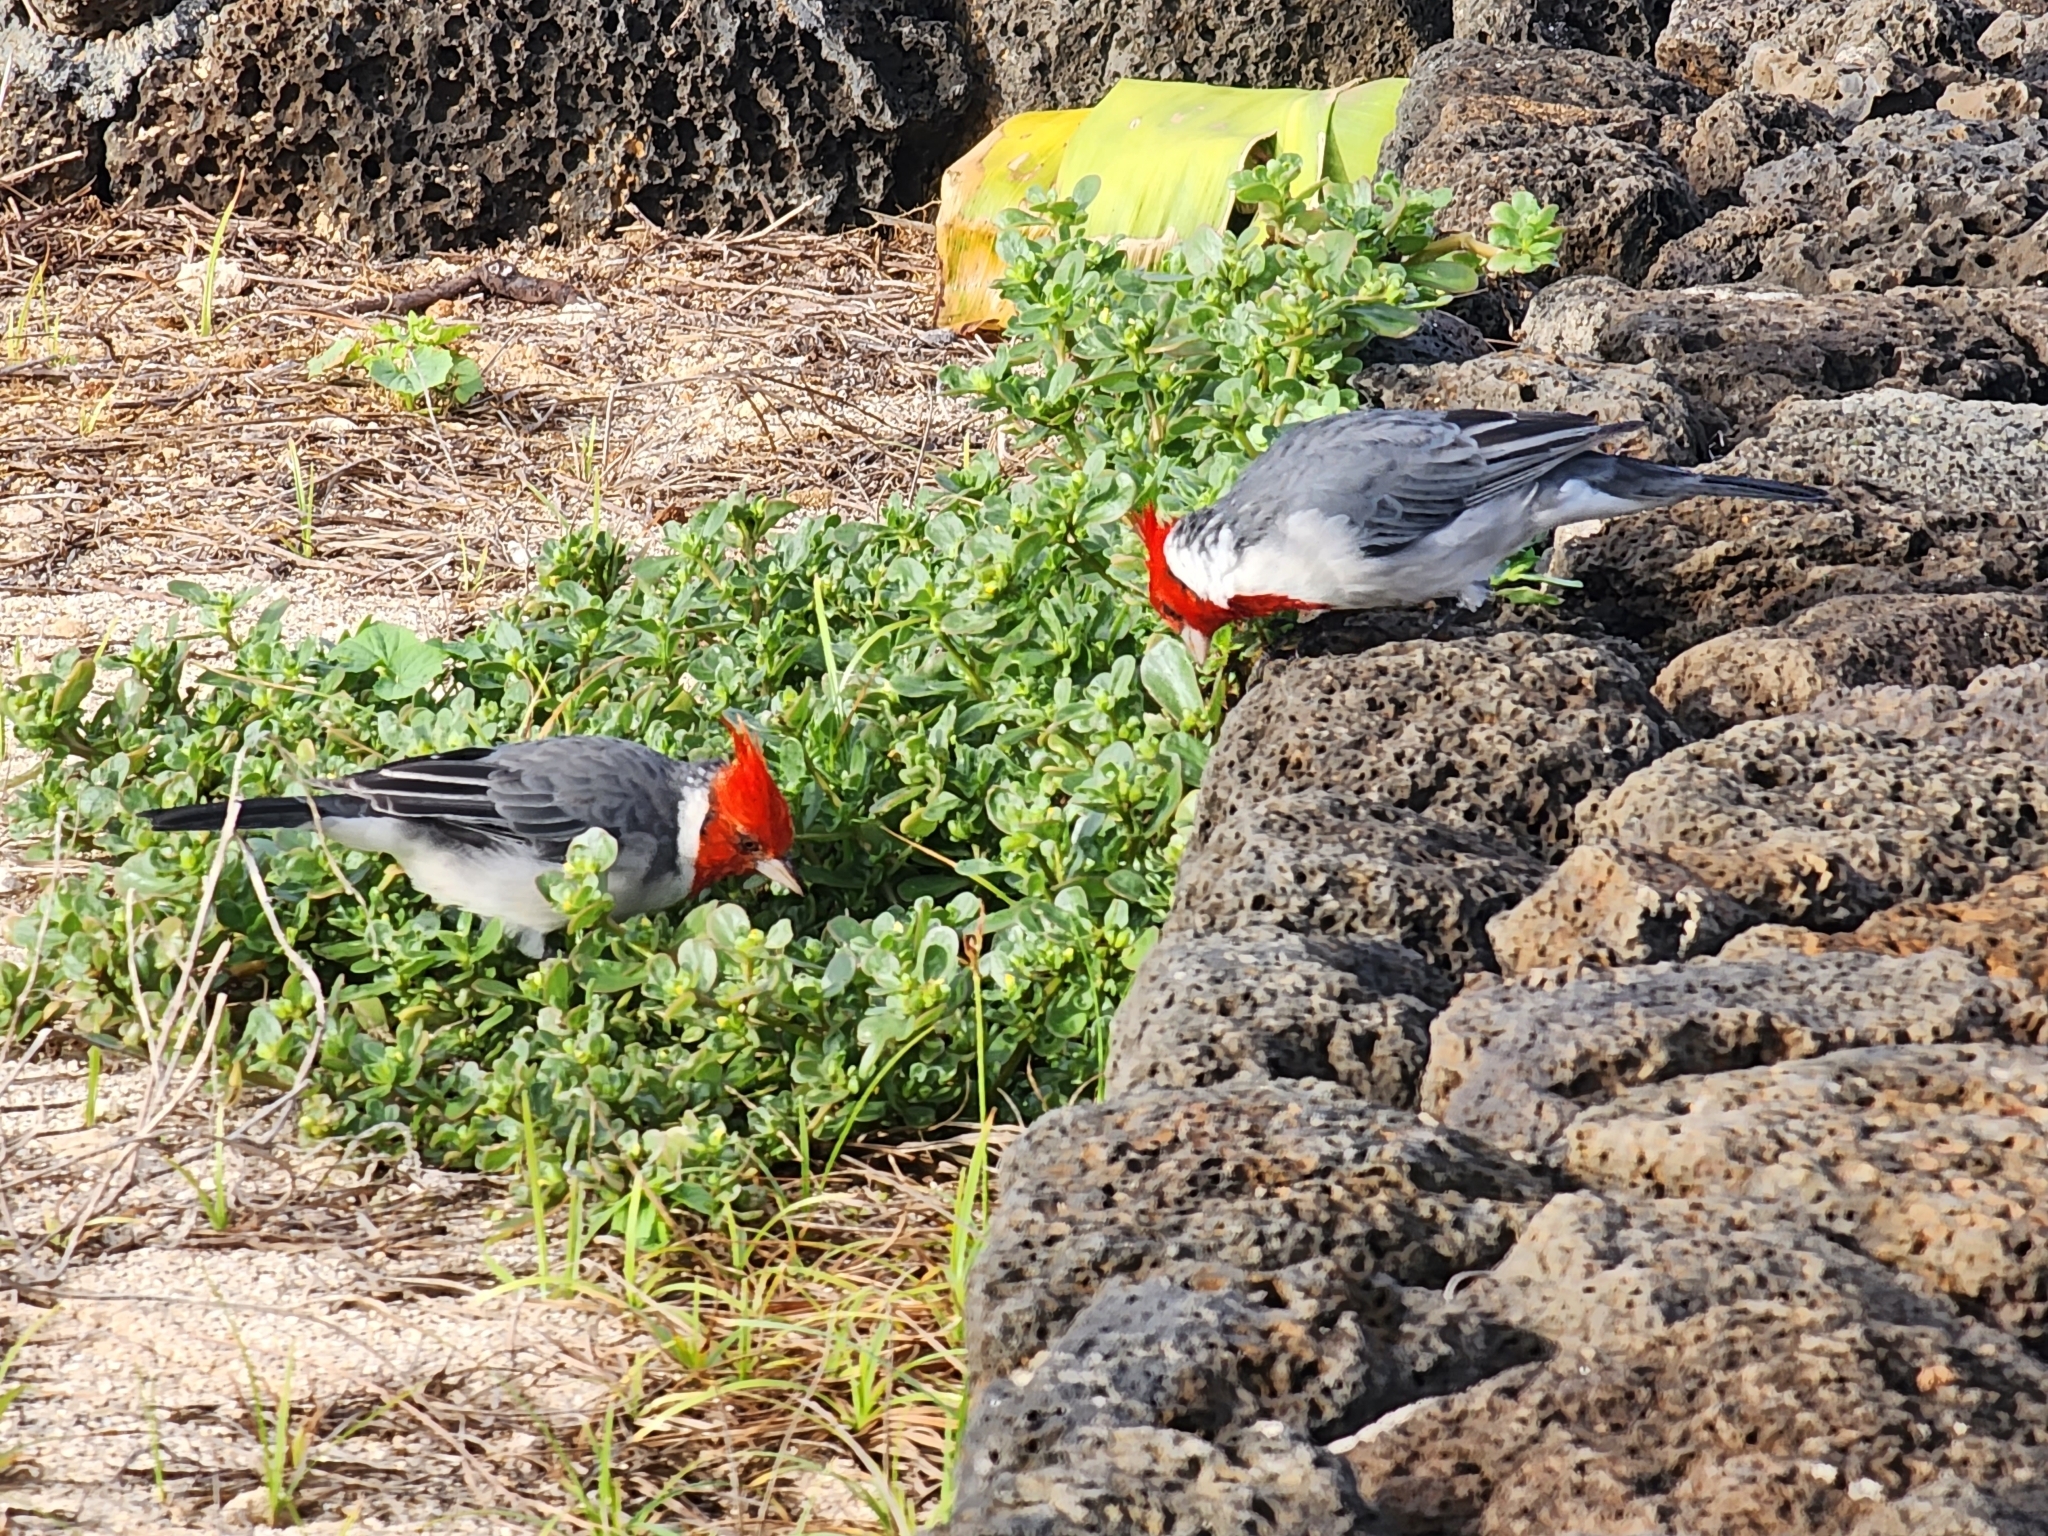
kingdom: Animalia
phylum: Chordata
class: Aves
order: Passeriformes
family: Thraupidae
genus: Paroaria
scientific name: Paroaria coronata
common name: Red-crested cardinal
